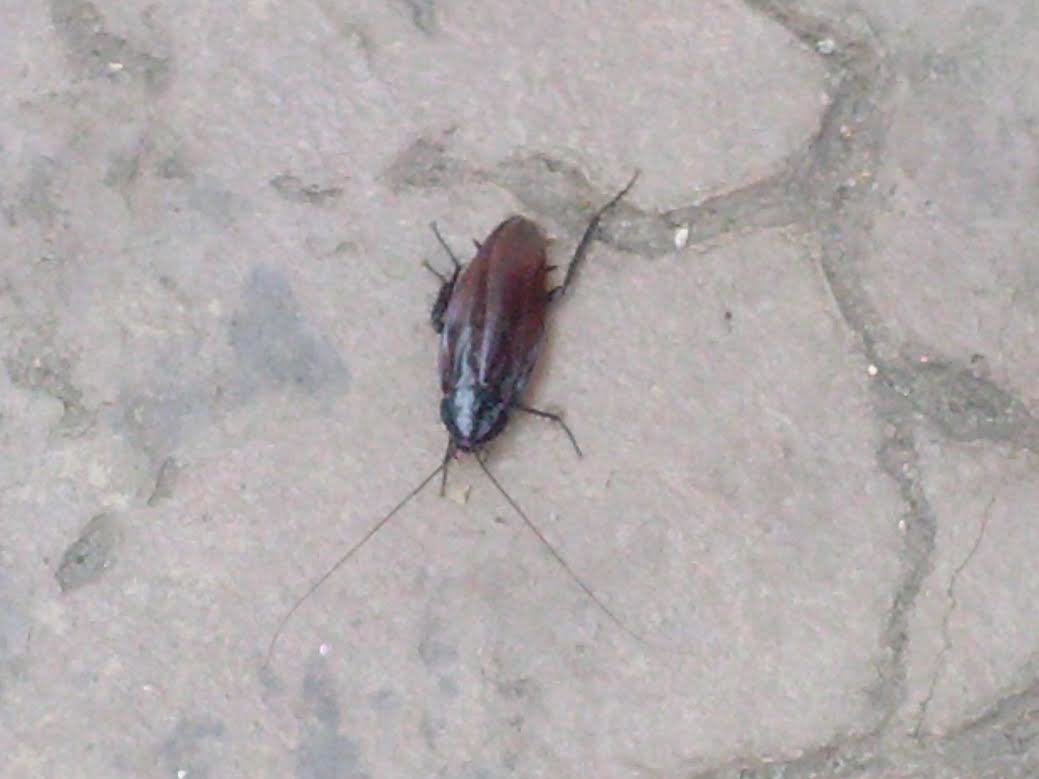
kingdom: Animalia
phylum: Arthropoda
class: Insecta
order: Blattodea
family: Blattidae
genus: Periplaneta
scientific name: Periplaneta fuliginosa
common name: Smokeybrown cockroad
